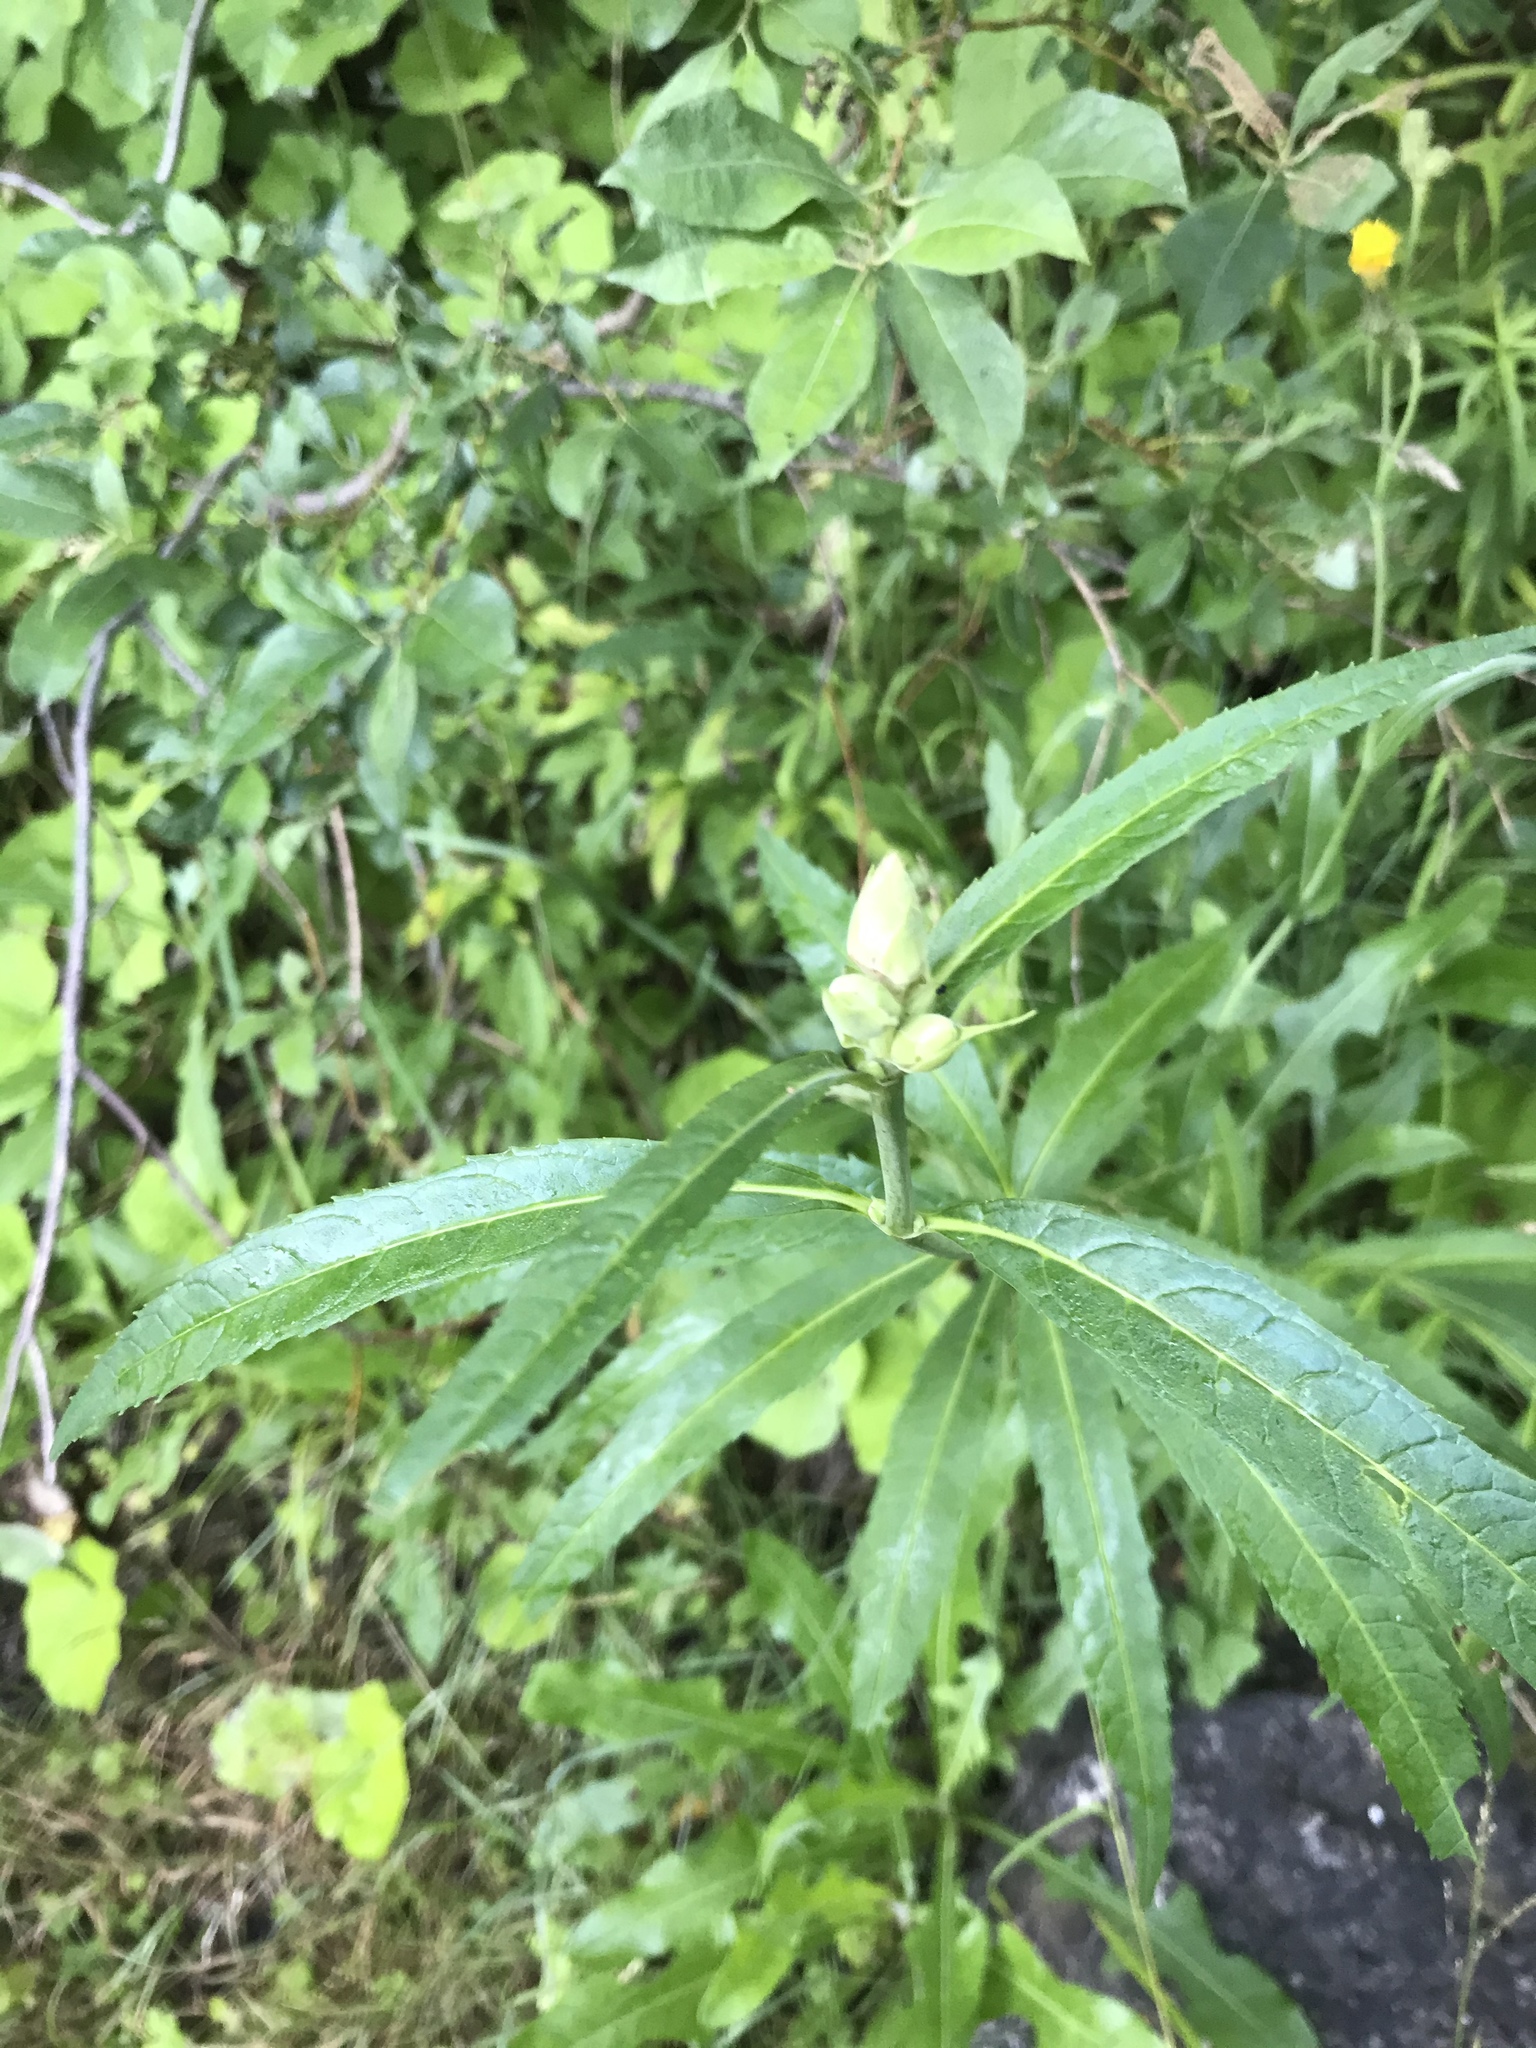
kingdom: Plantae
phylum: Tracheophyta
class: Magnoliopsida
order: Lamiales
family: Plantaginaceae
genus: Chelone
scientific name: Chelone glabra
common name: Snakehead
